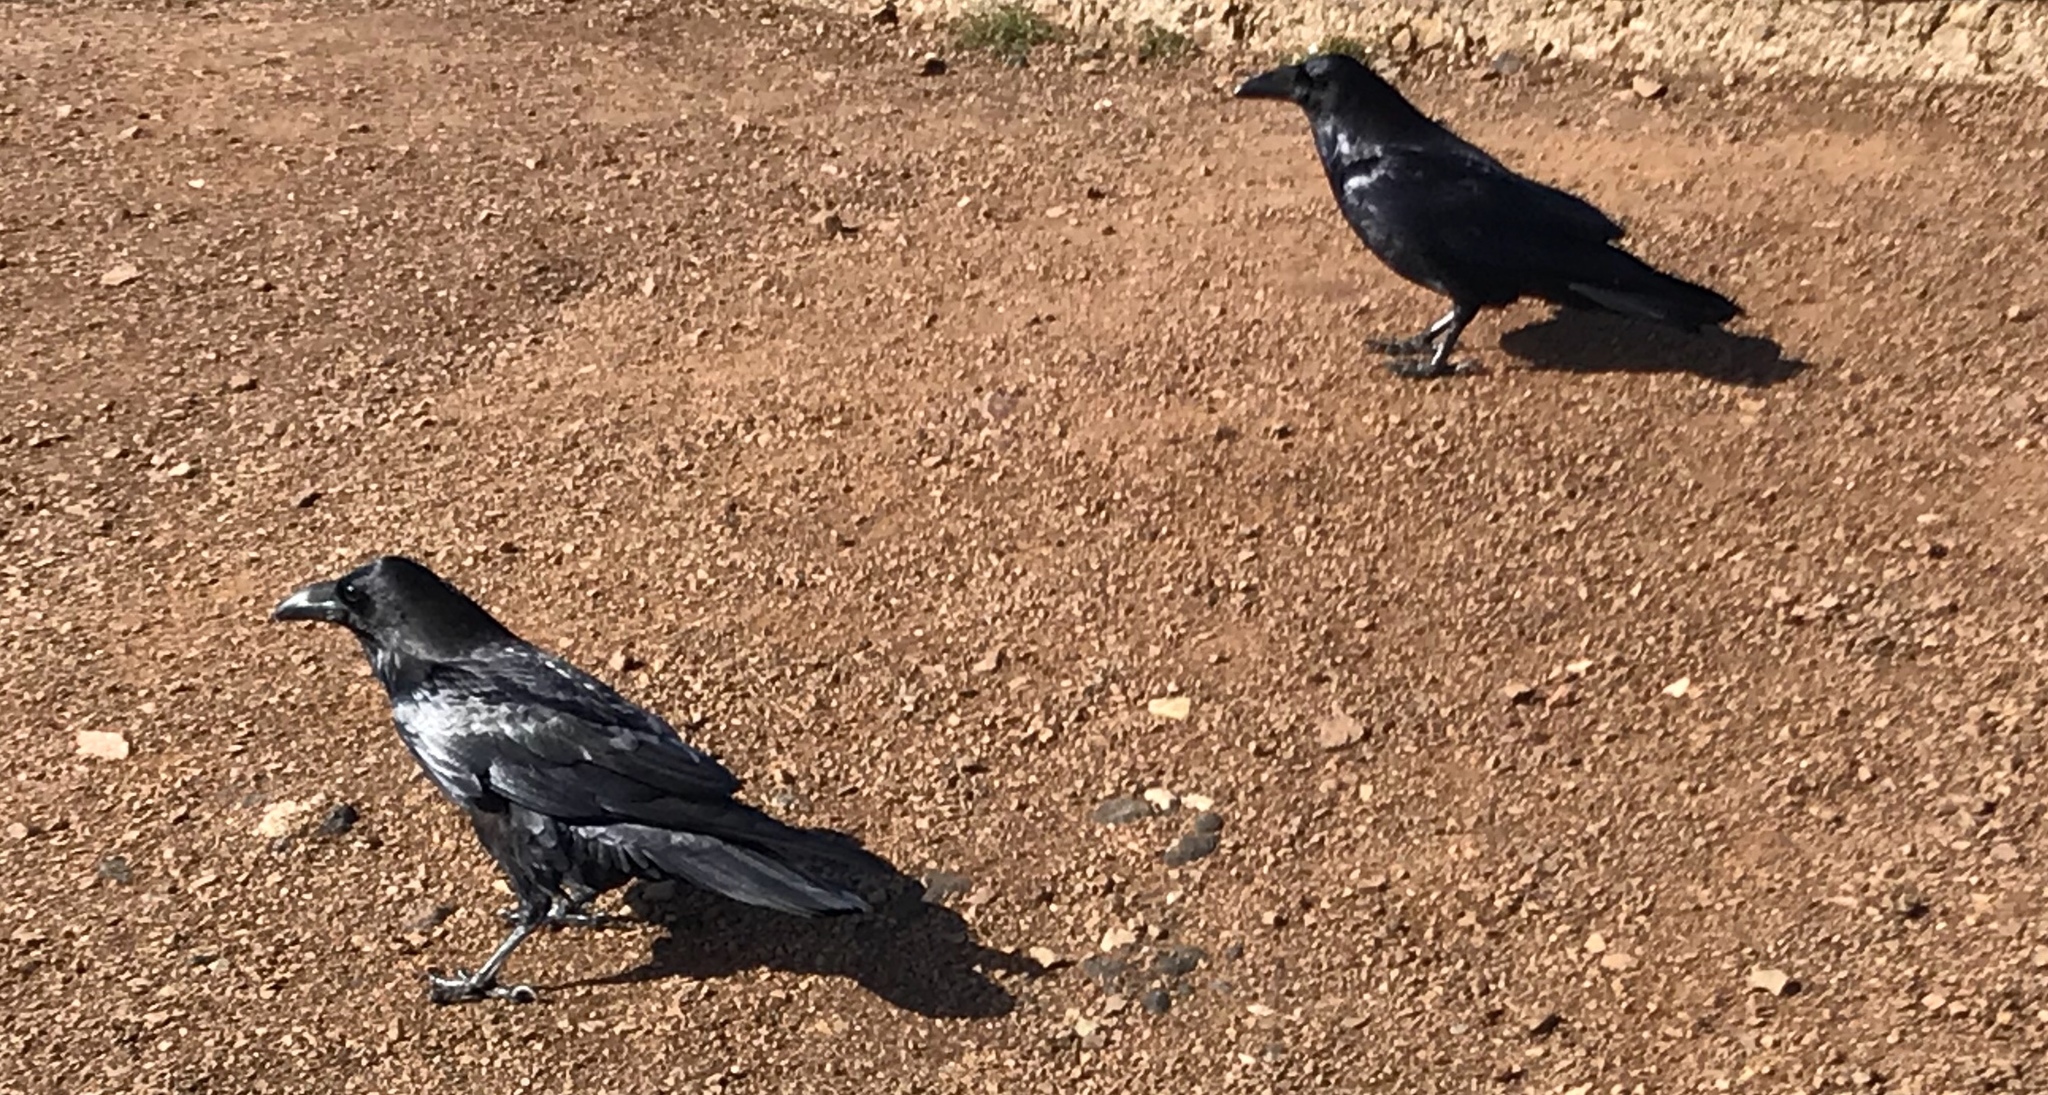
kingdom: Animalia
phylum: Chordata
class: Aves
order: Passeriformes
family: Corvidae
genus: Corvus
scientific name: Corvus corax
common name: Common raven
